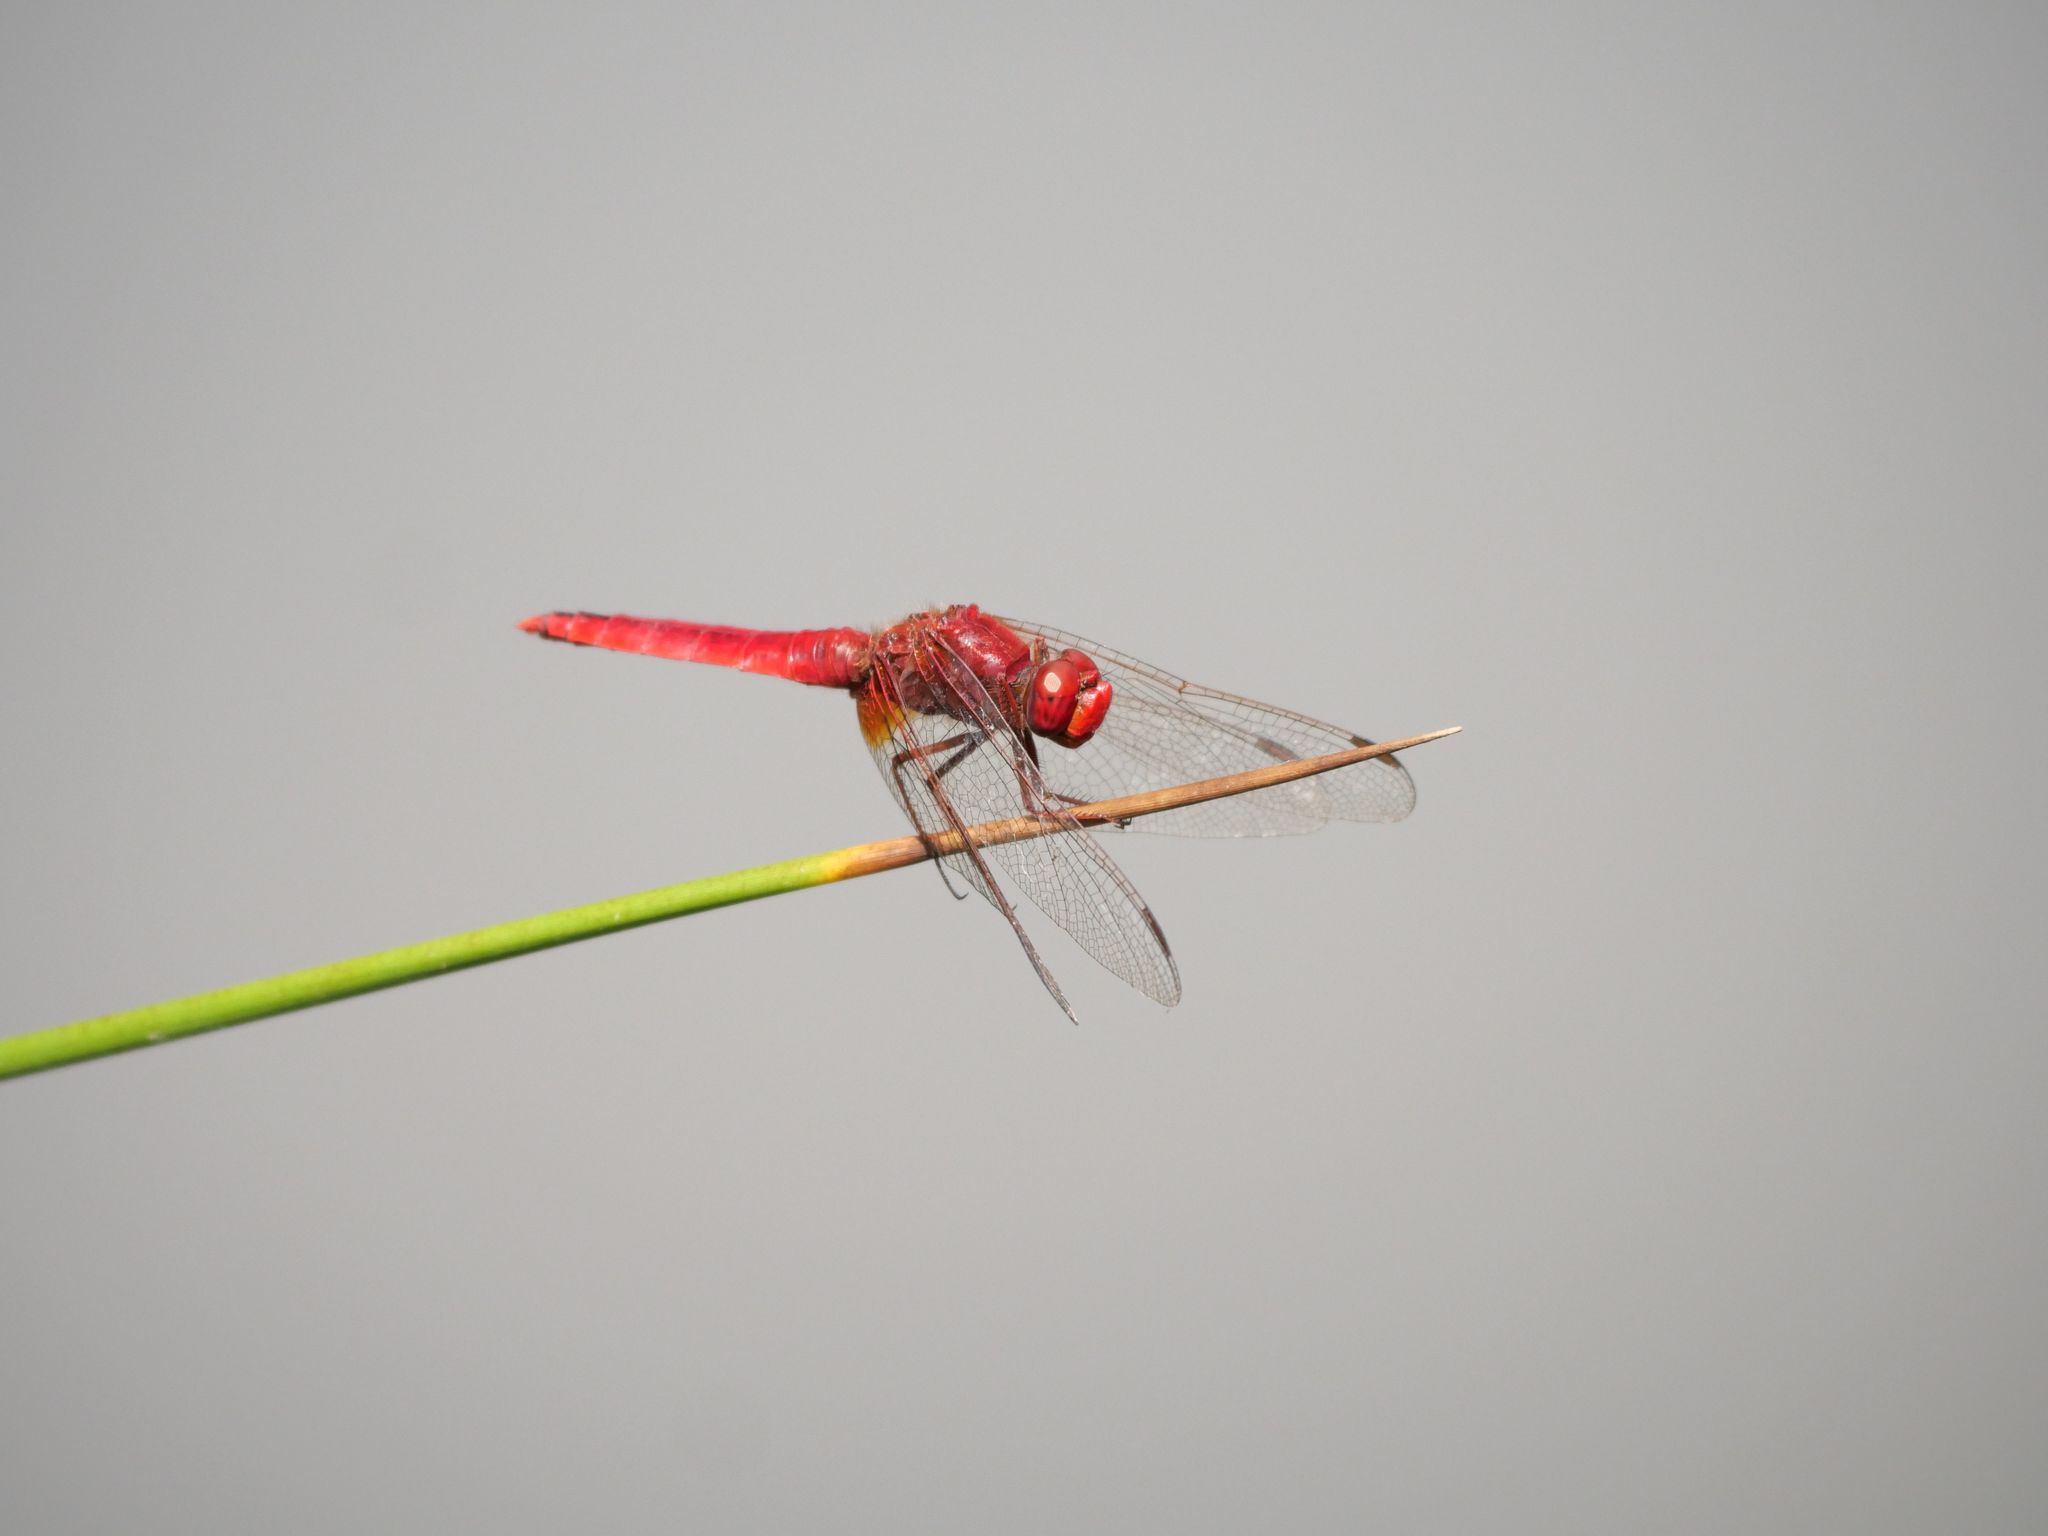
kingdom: Animalia
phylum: Arthropoda
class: Insecta
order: Odonata
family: Libellulidae
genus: Crocothemis
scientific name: Crocothemis erythraea
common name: Scarlet dragonfly
